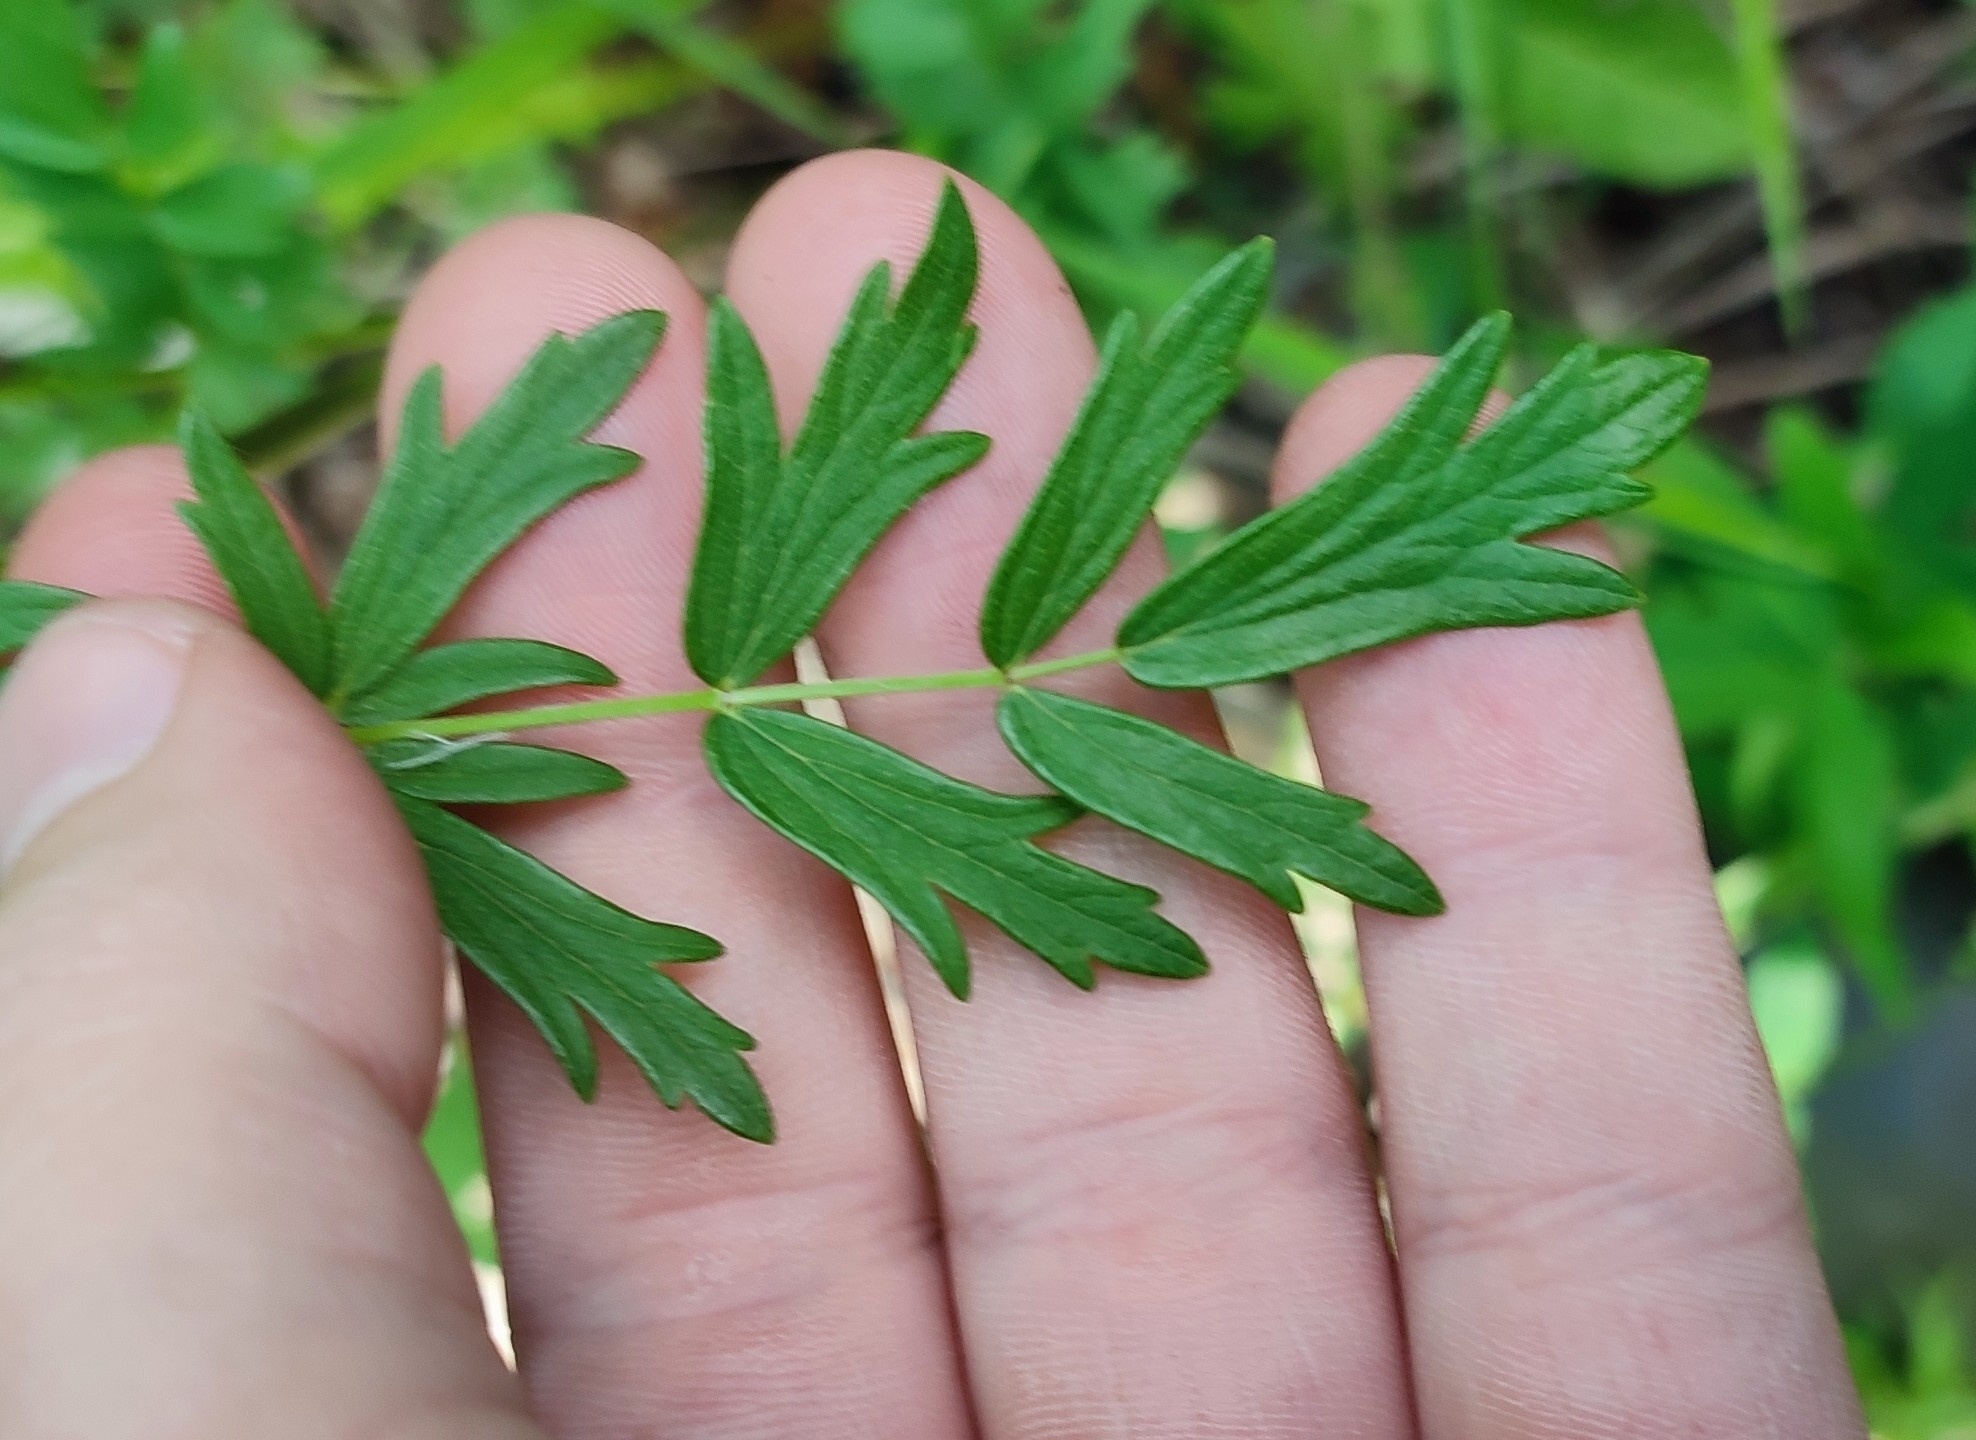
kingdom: Plantae
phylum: Tracheophyta
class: Magnoliopsida
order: Ranunculales
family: Ranunculaceae
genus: Thalictrum
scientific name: Thalictrum flavum
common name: Common meadow-rue
